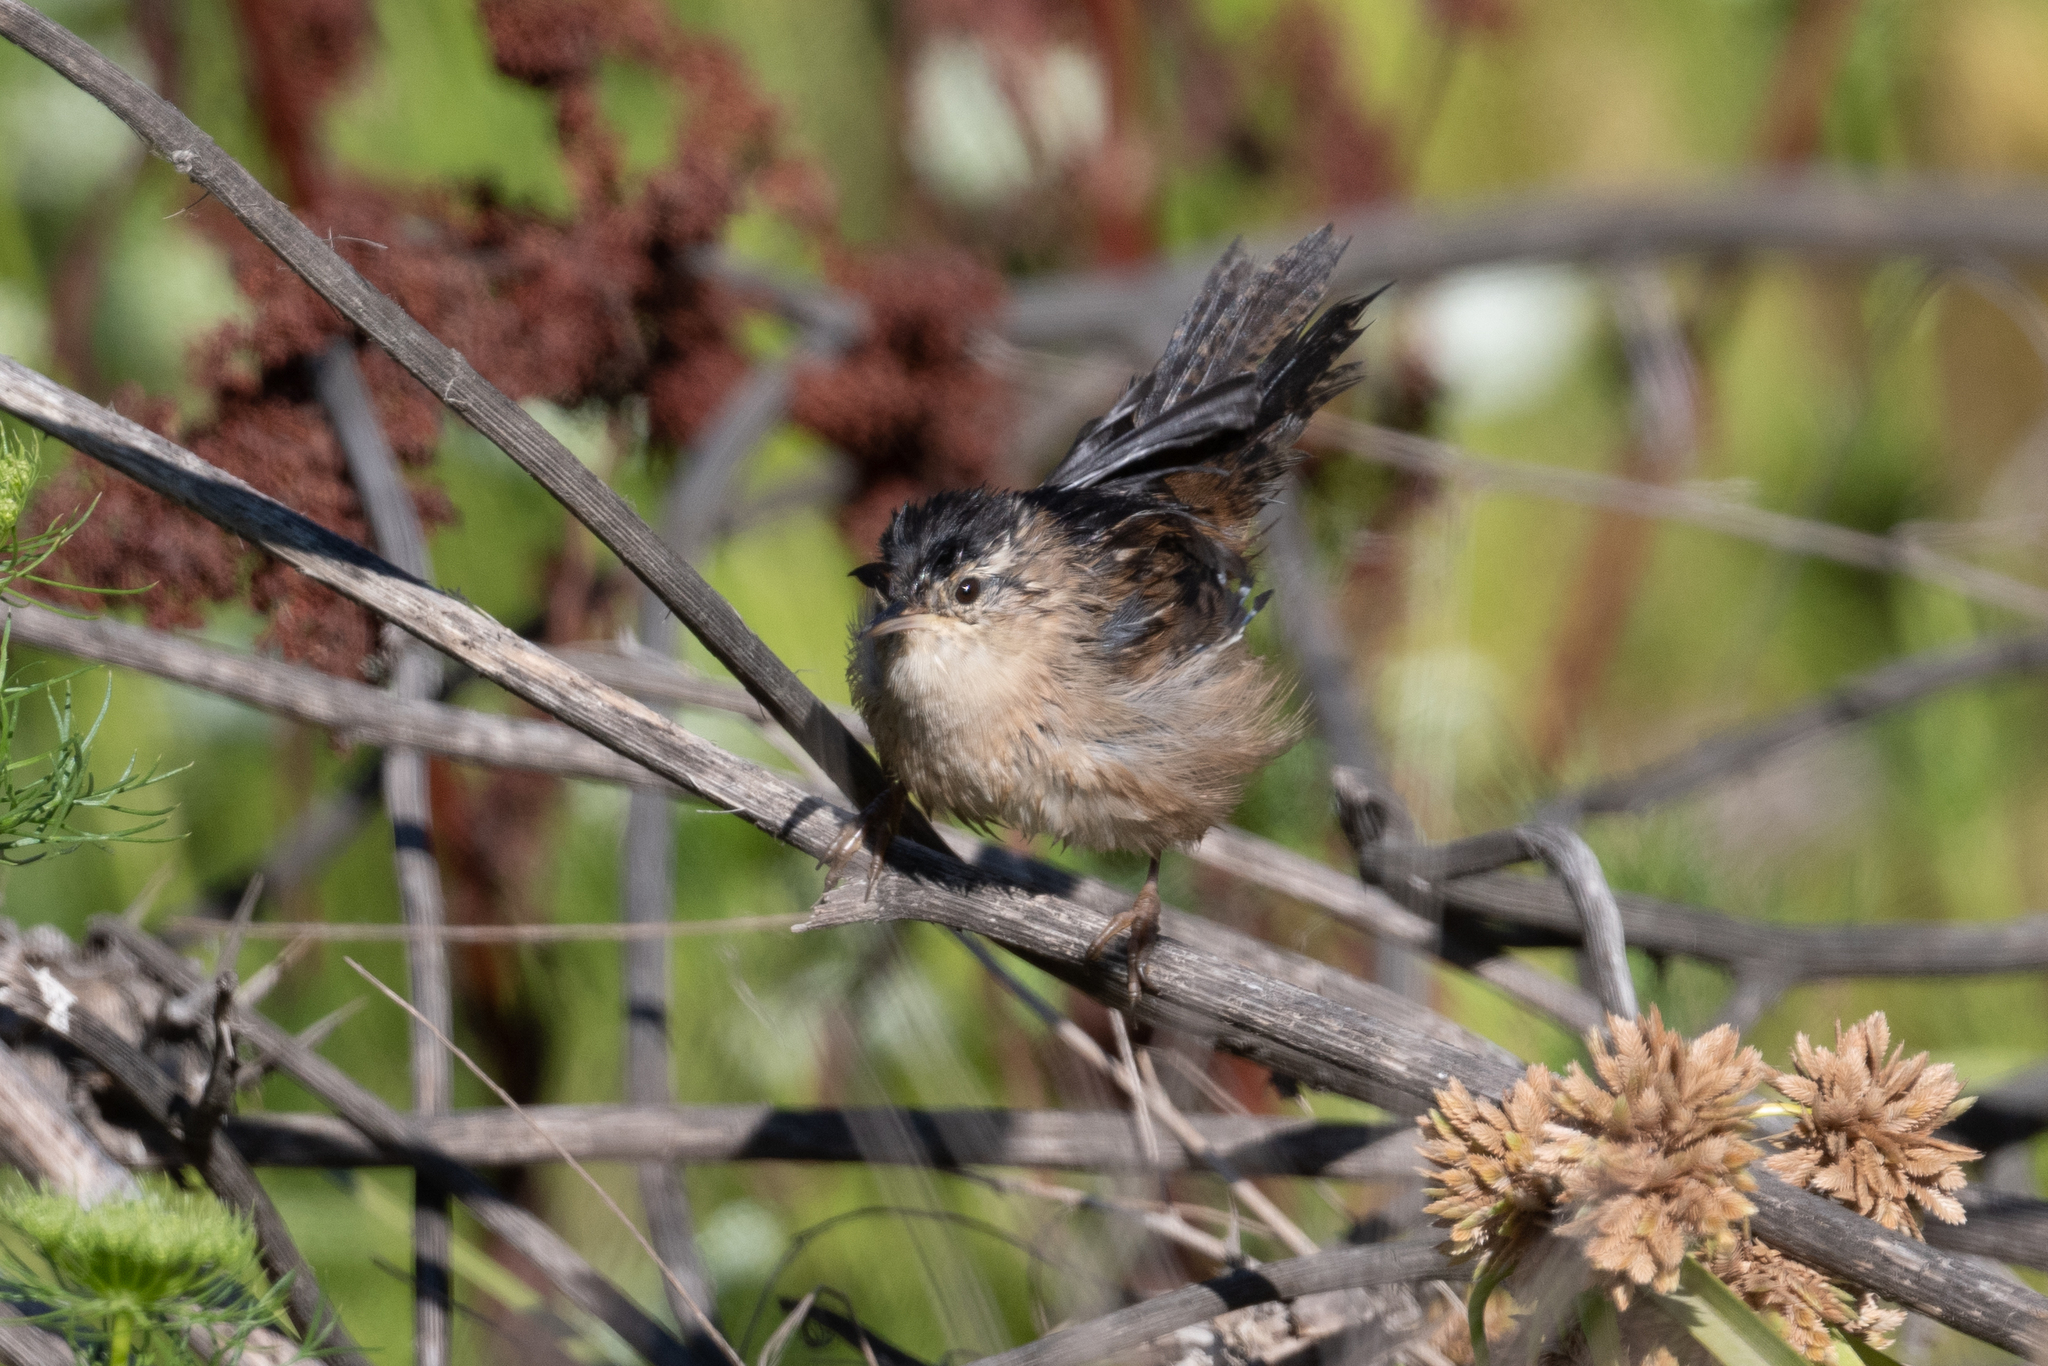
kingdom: Animalia
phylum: Chordata
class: Aves
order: Passeriformes
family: Troglodytidae
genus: Cistothorus
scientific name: Cistothorus palustris
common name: Marsh wren
